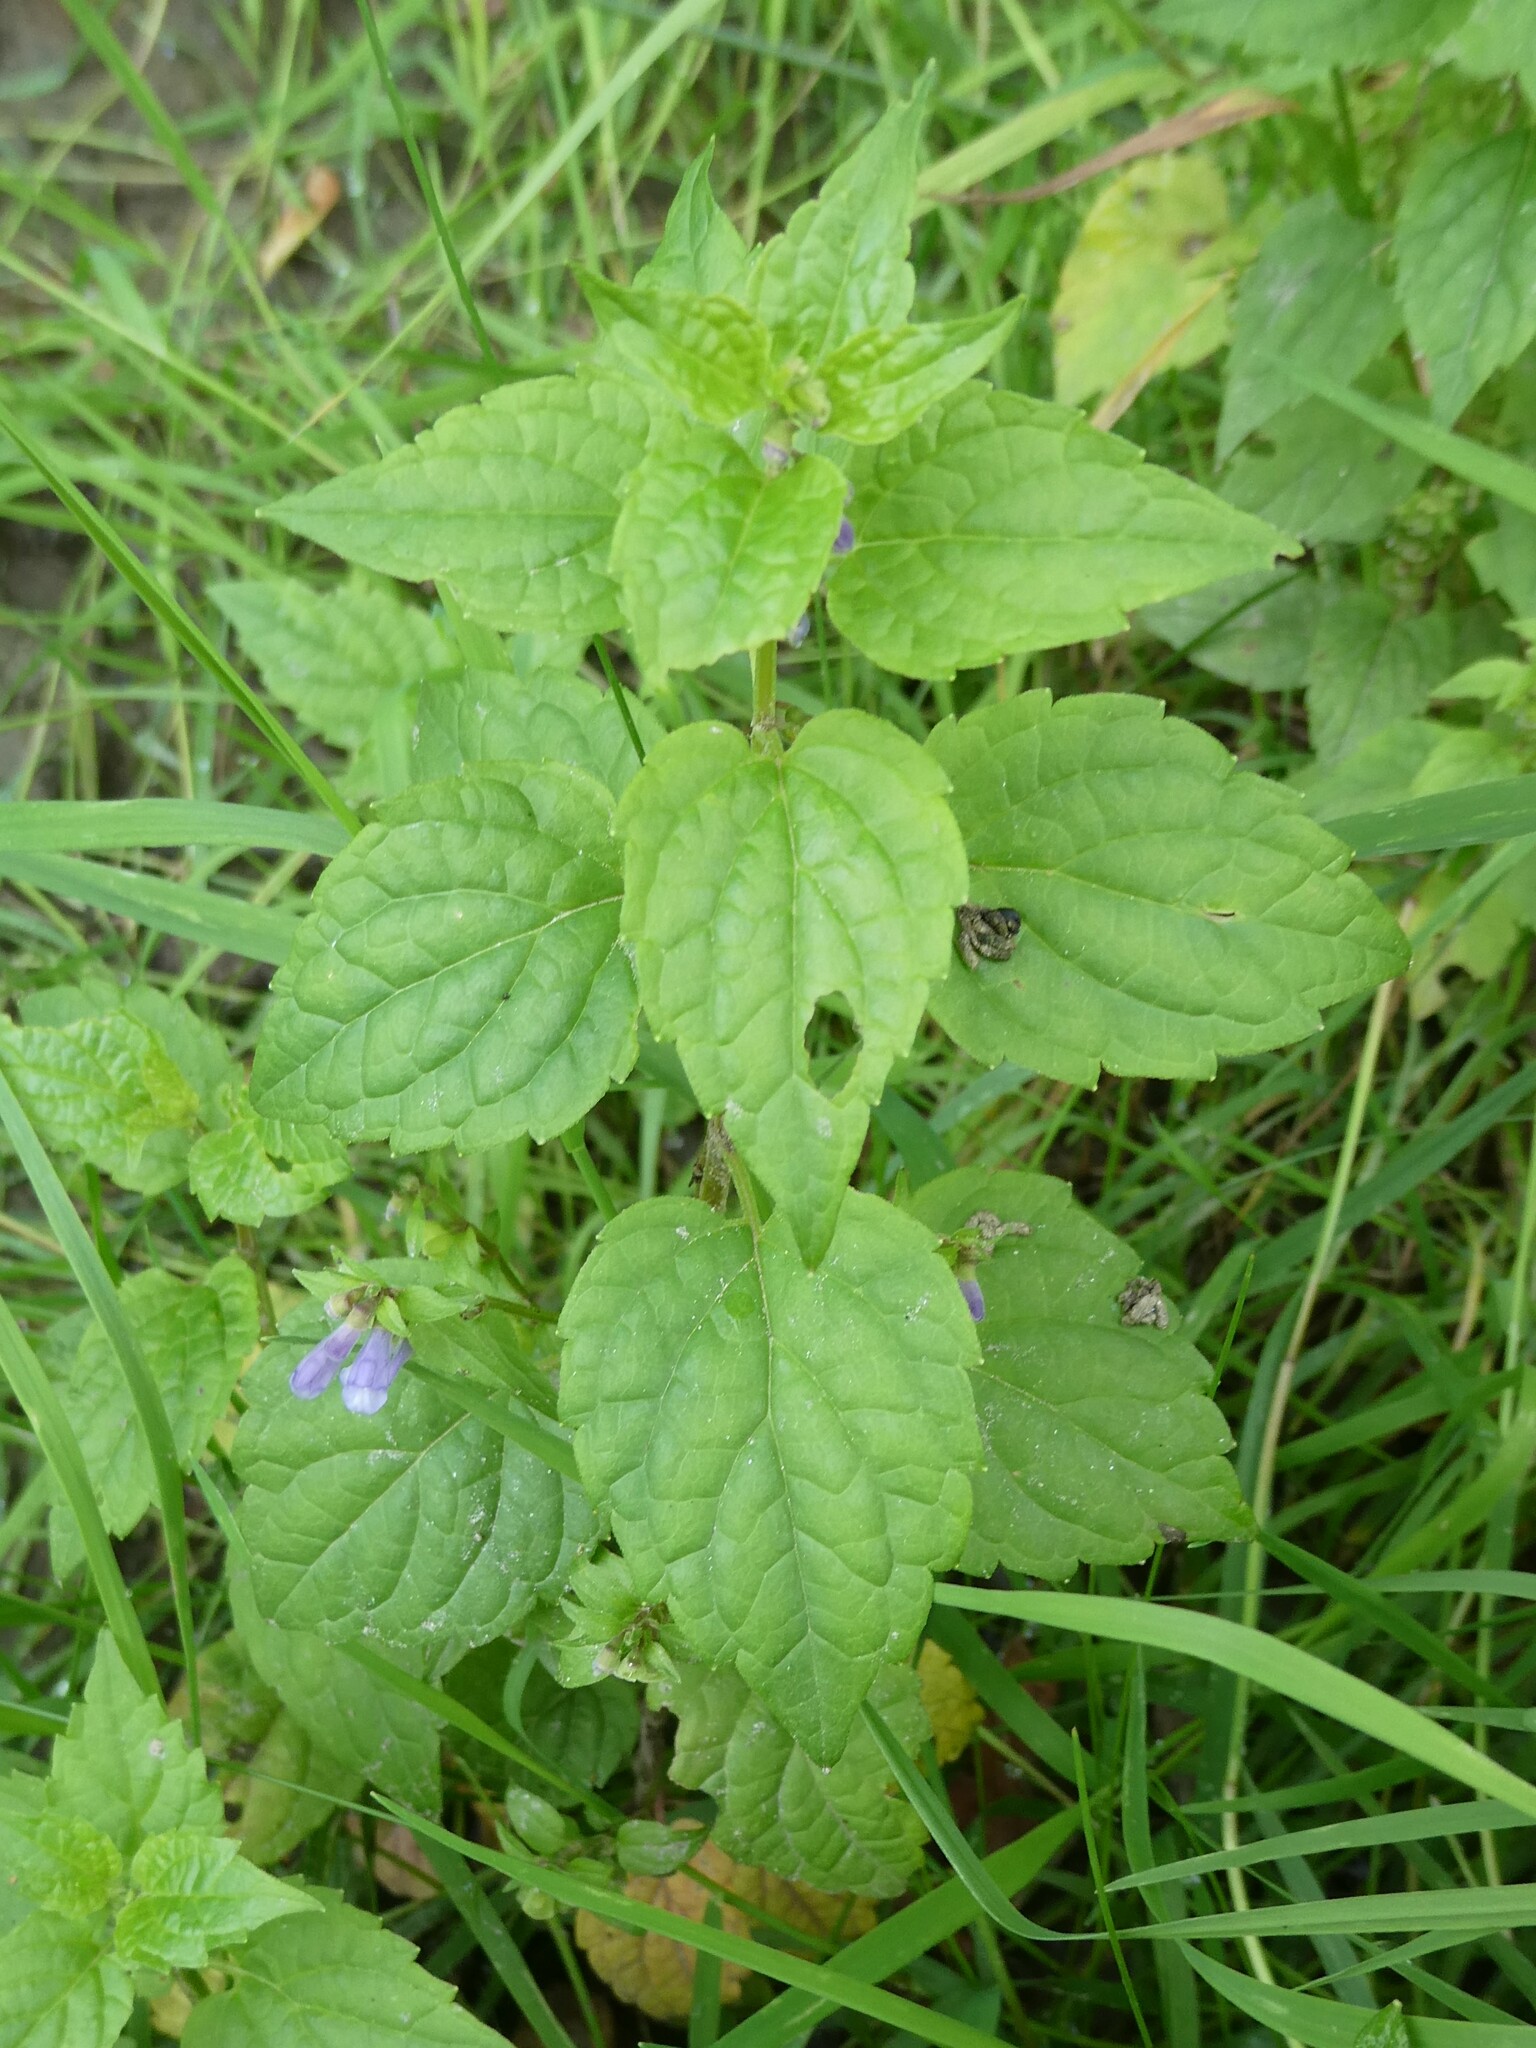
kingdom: Plantae
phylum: Tracheophyta
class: Magnoliopsida
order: Lamiales
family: Lamiaceae
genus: Scutellaria
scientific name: Scutellaria lateriflora
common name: Blue skullcap
